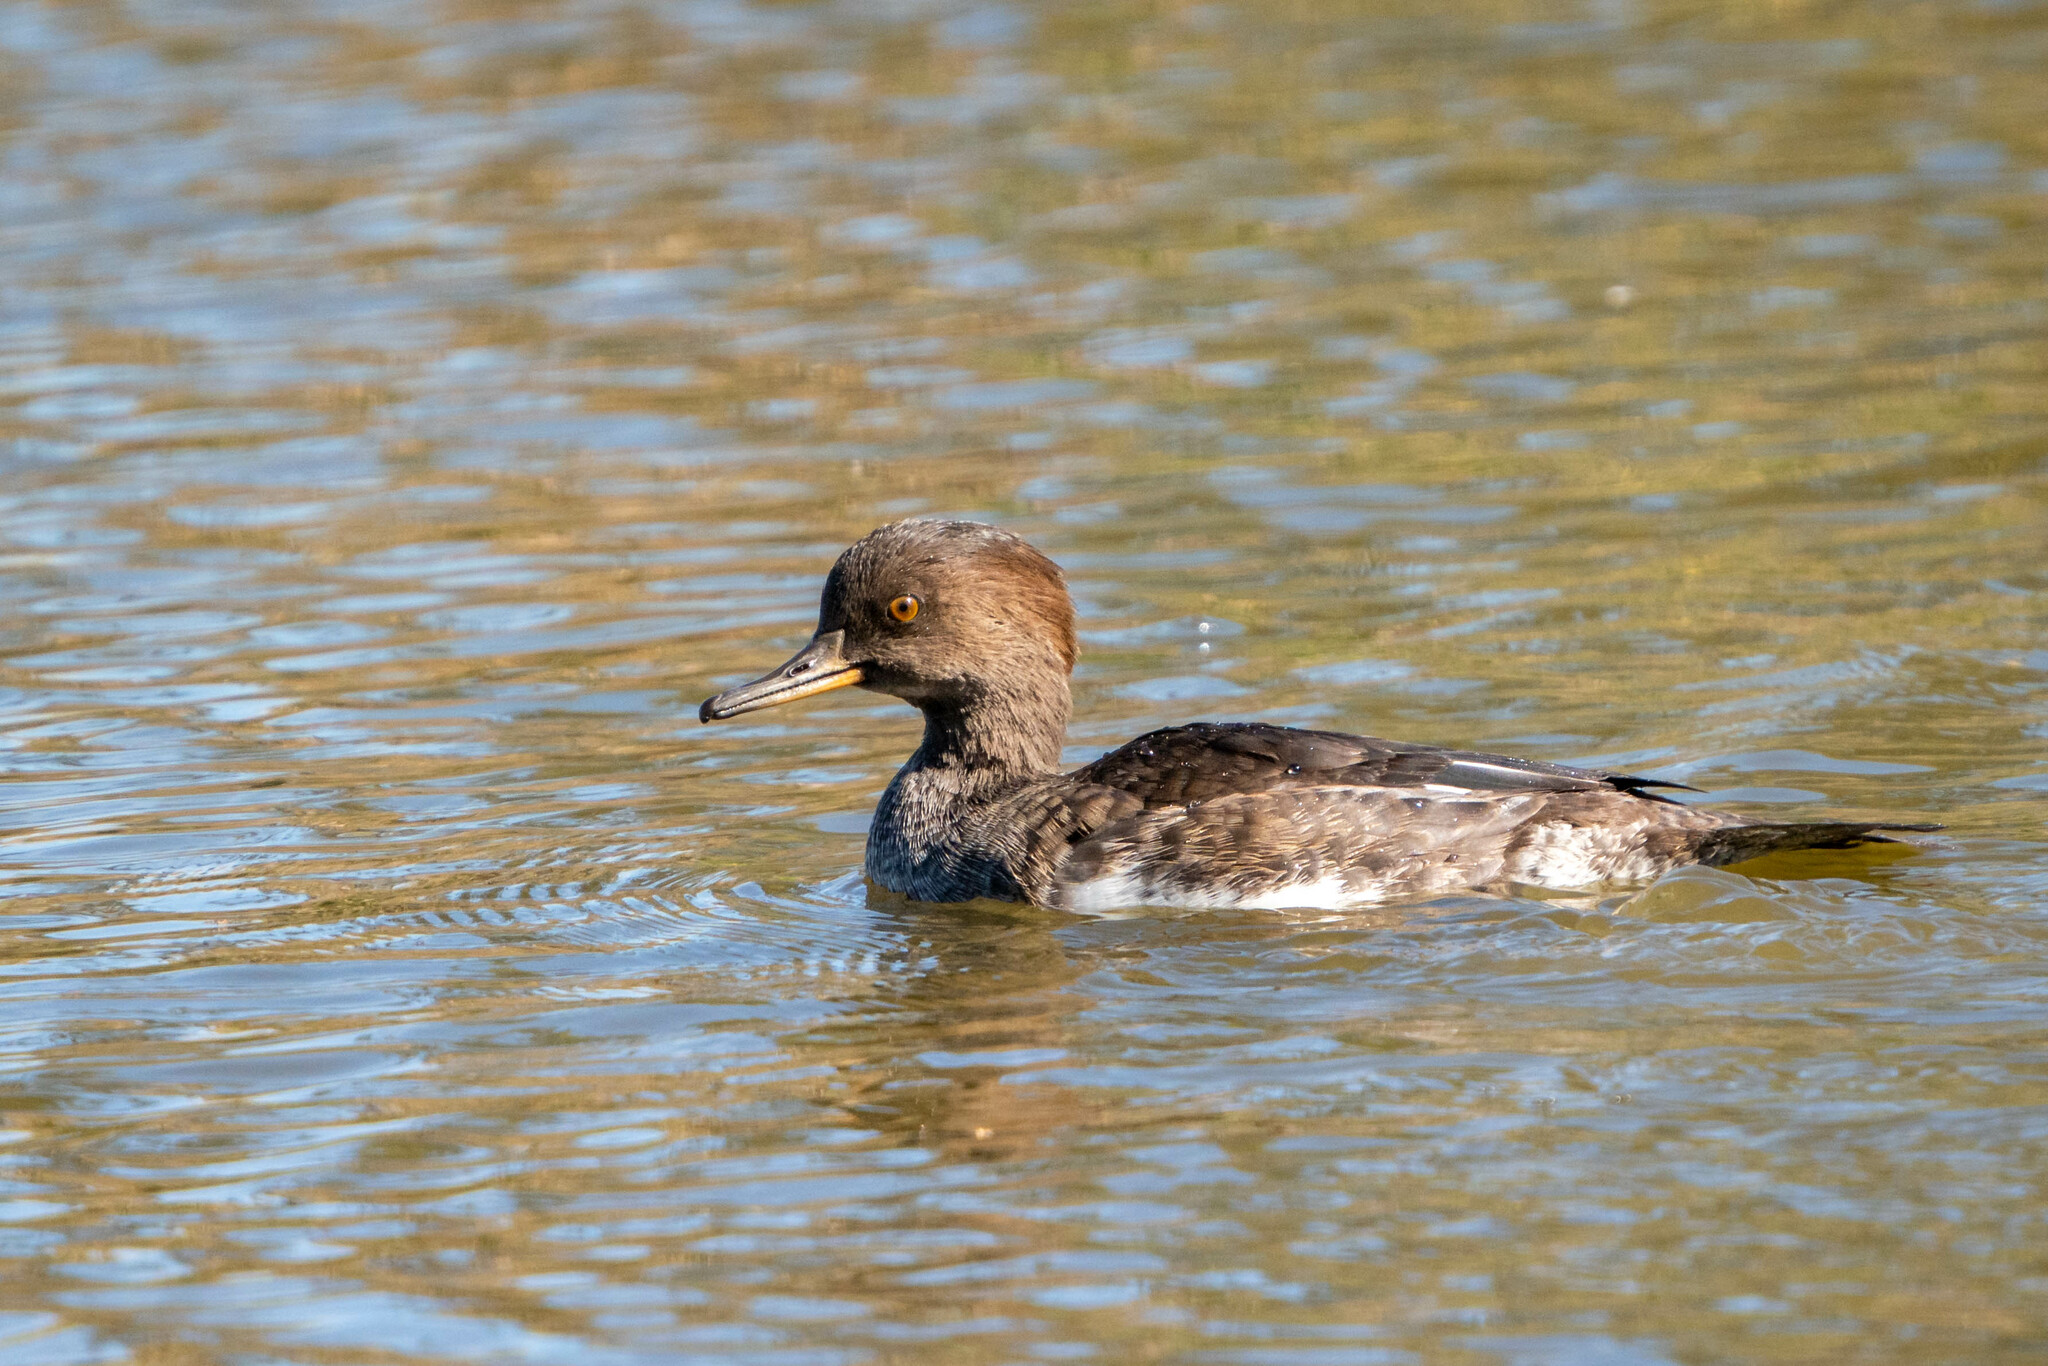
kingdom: Animalia
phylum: Chordata
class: Aves
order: Anseriformes
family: Anatidae
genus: Lophodytes
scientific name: Lophodytes cucullatus
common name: Hooded merganser
